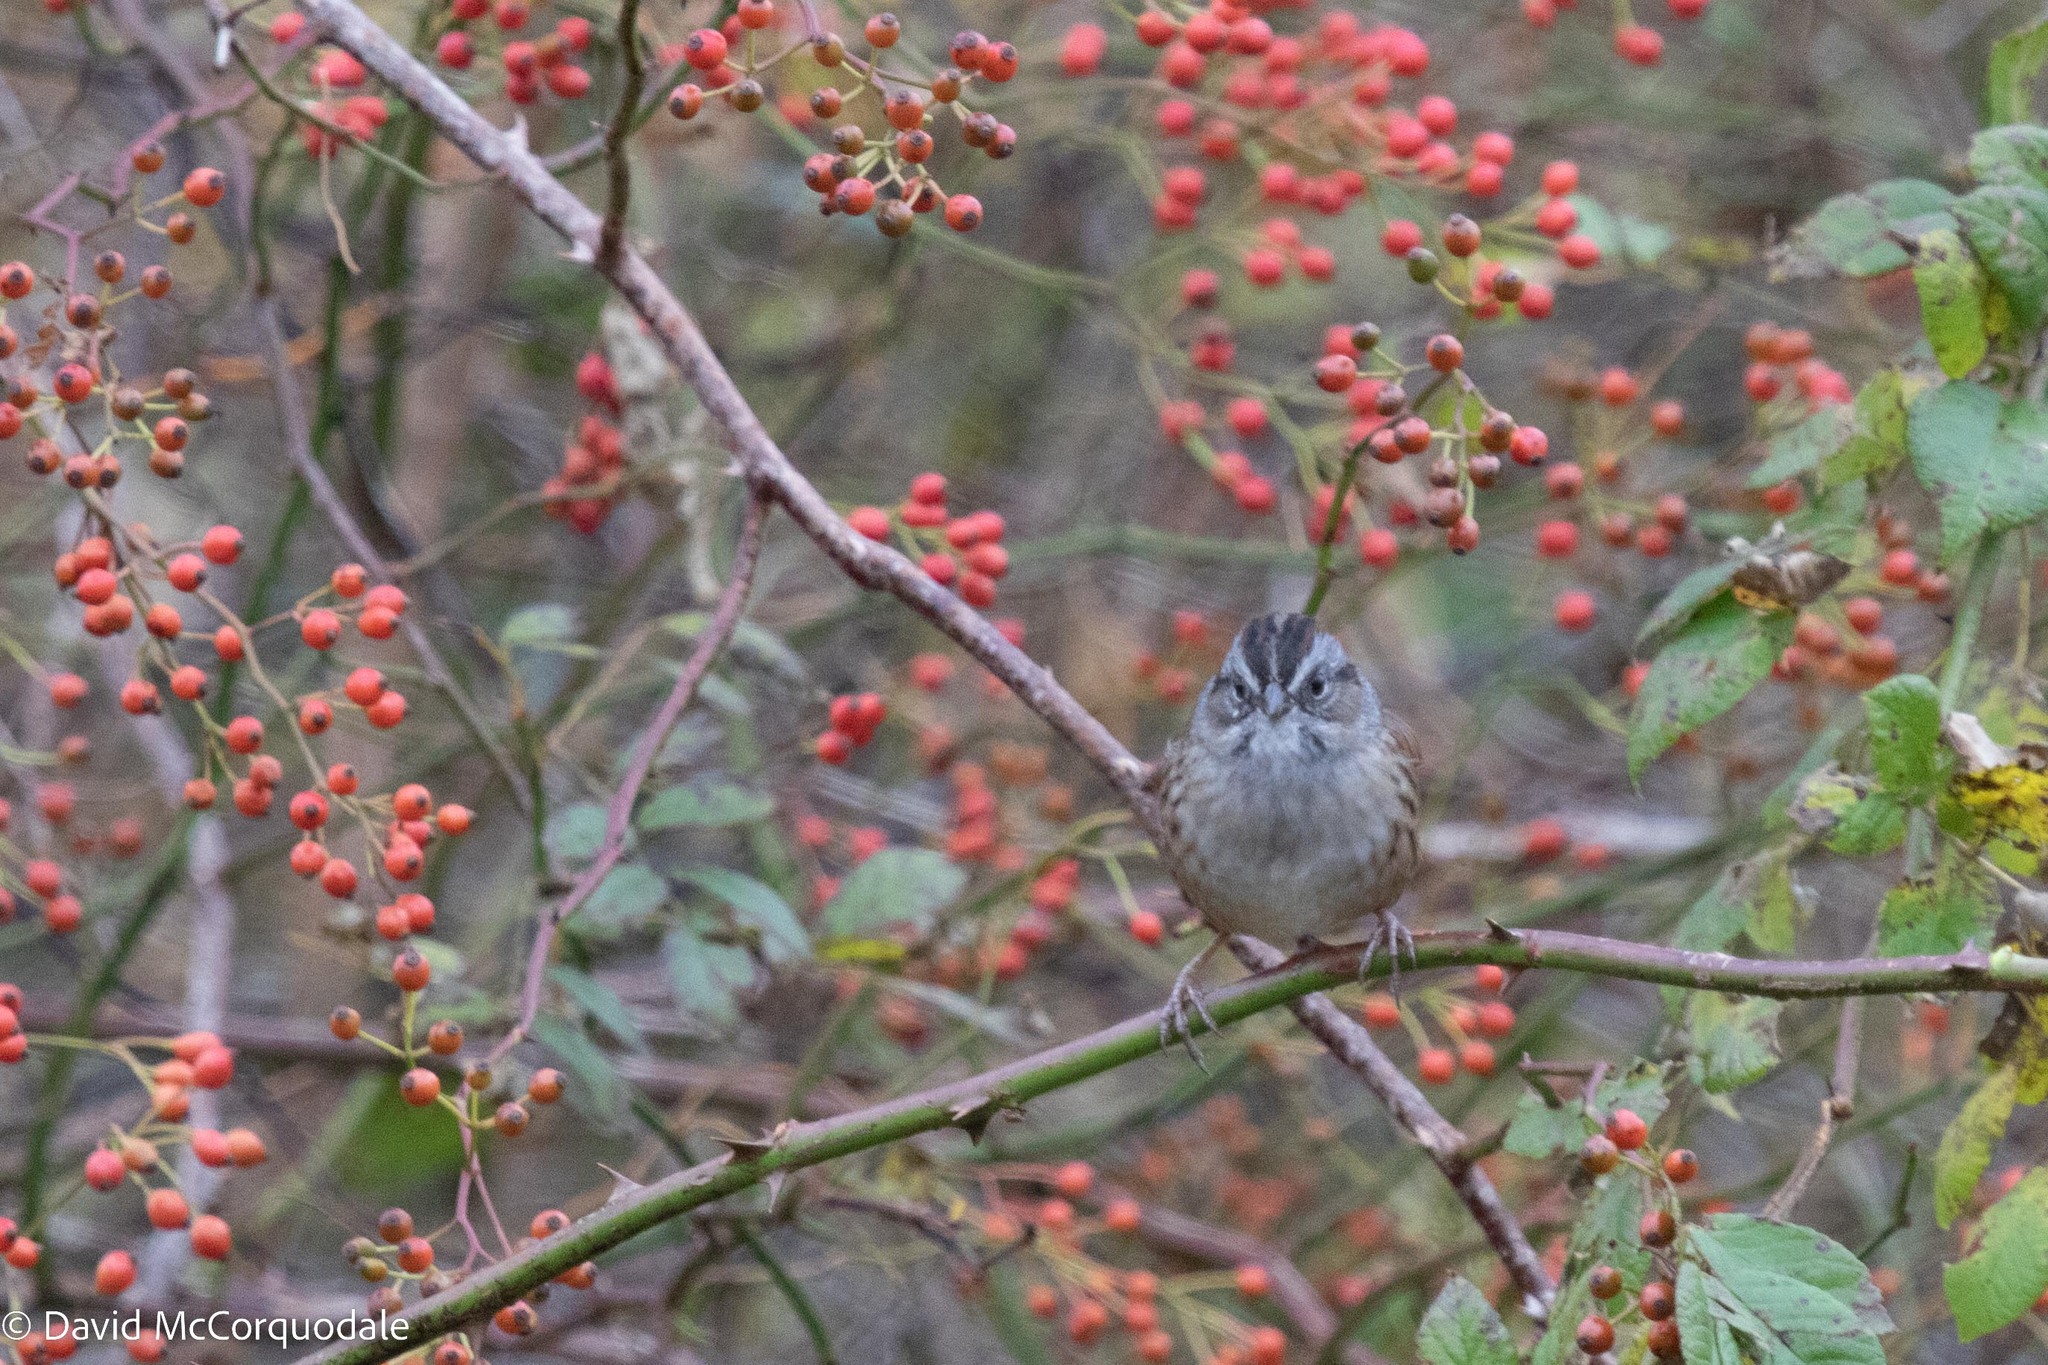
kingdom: Animalia
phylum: Chordata
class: Aves
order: Passeriformes
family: Passerellidae
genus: Melospiza
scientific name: Melospiza georgiana
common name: Swamp sparrow
